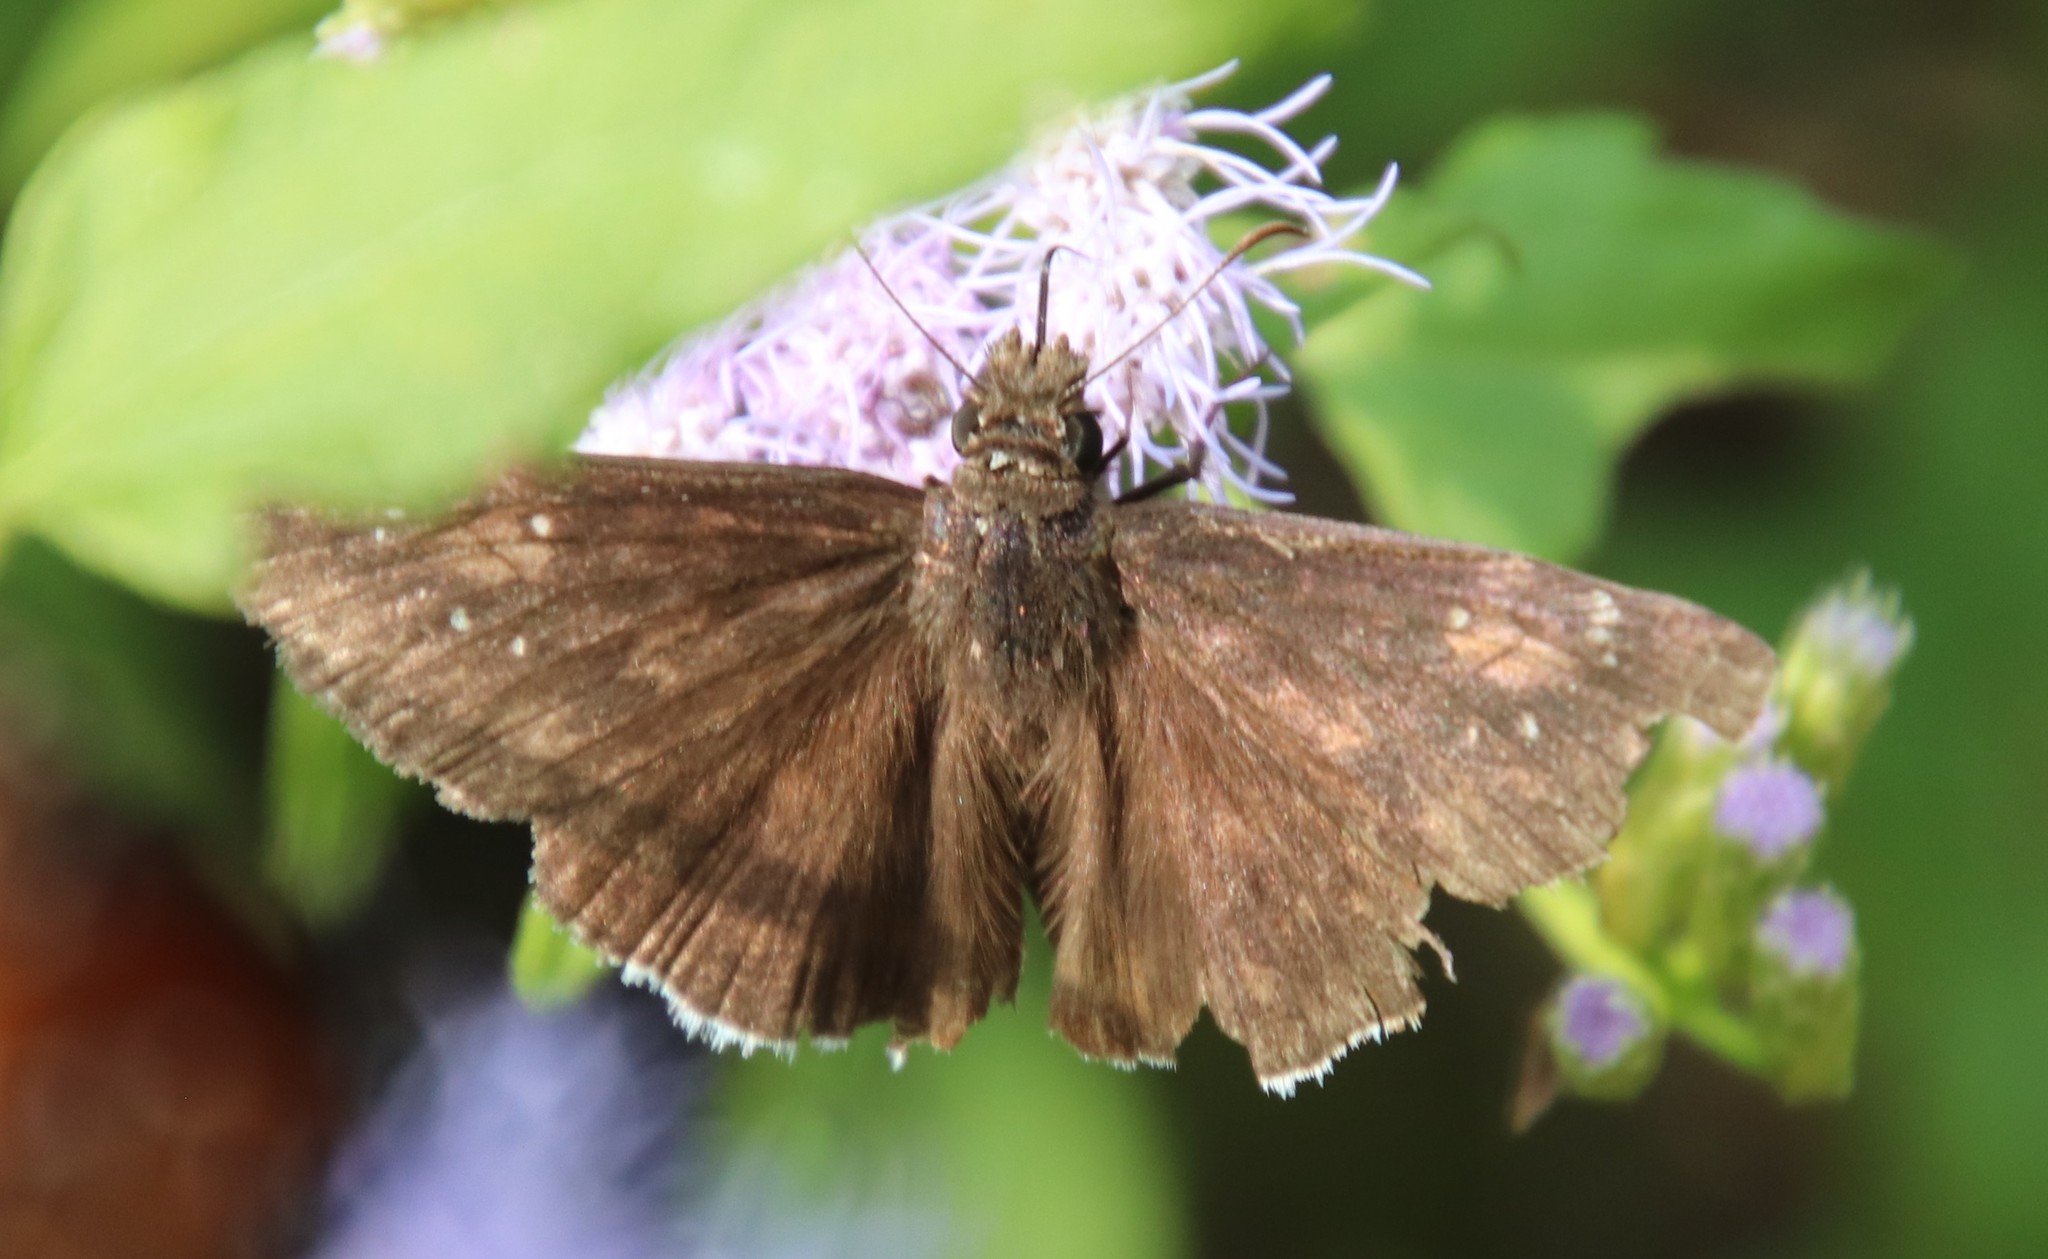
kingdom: Animalia
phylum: Arthropoda
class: Insecta
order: Lepidoptera
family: Hesperiidae
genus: Erynnis
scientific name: Erynnis funeralis
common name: Funereal duskywing
